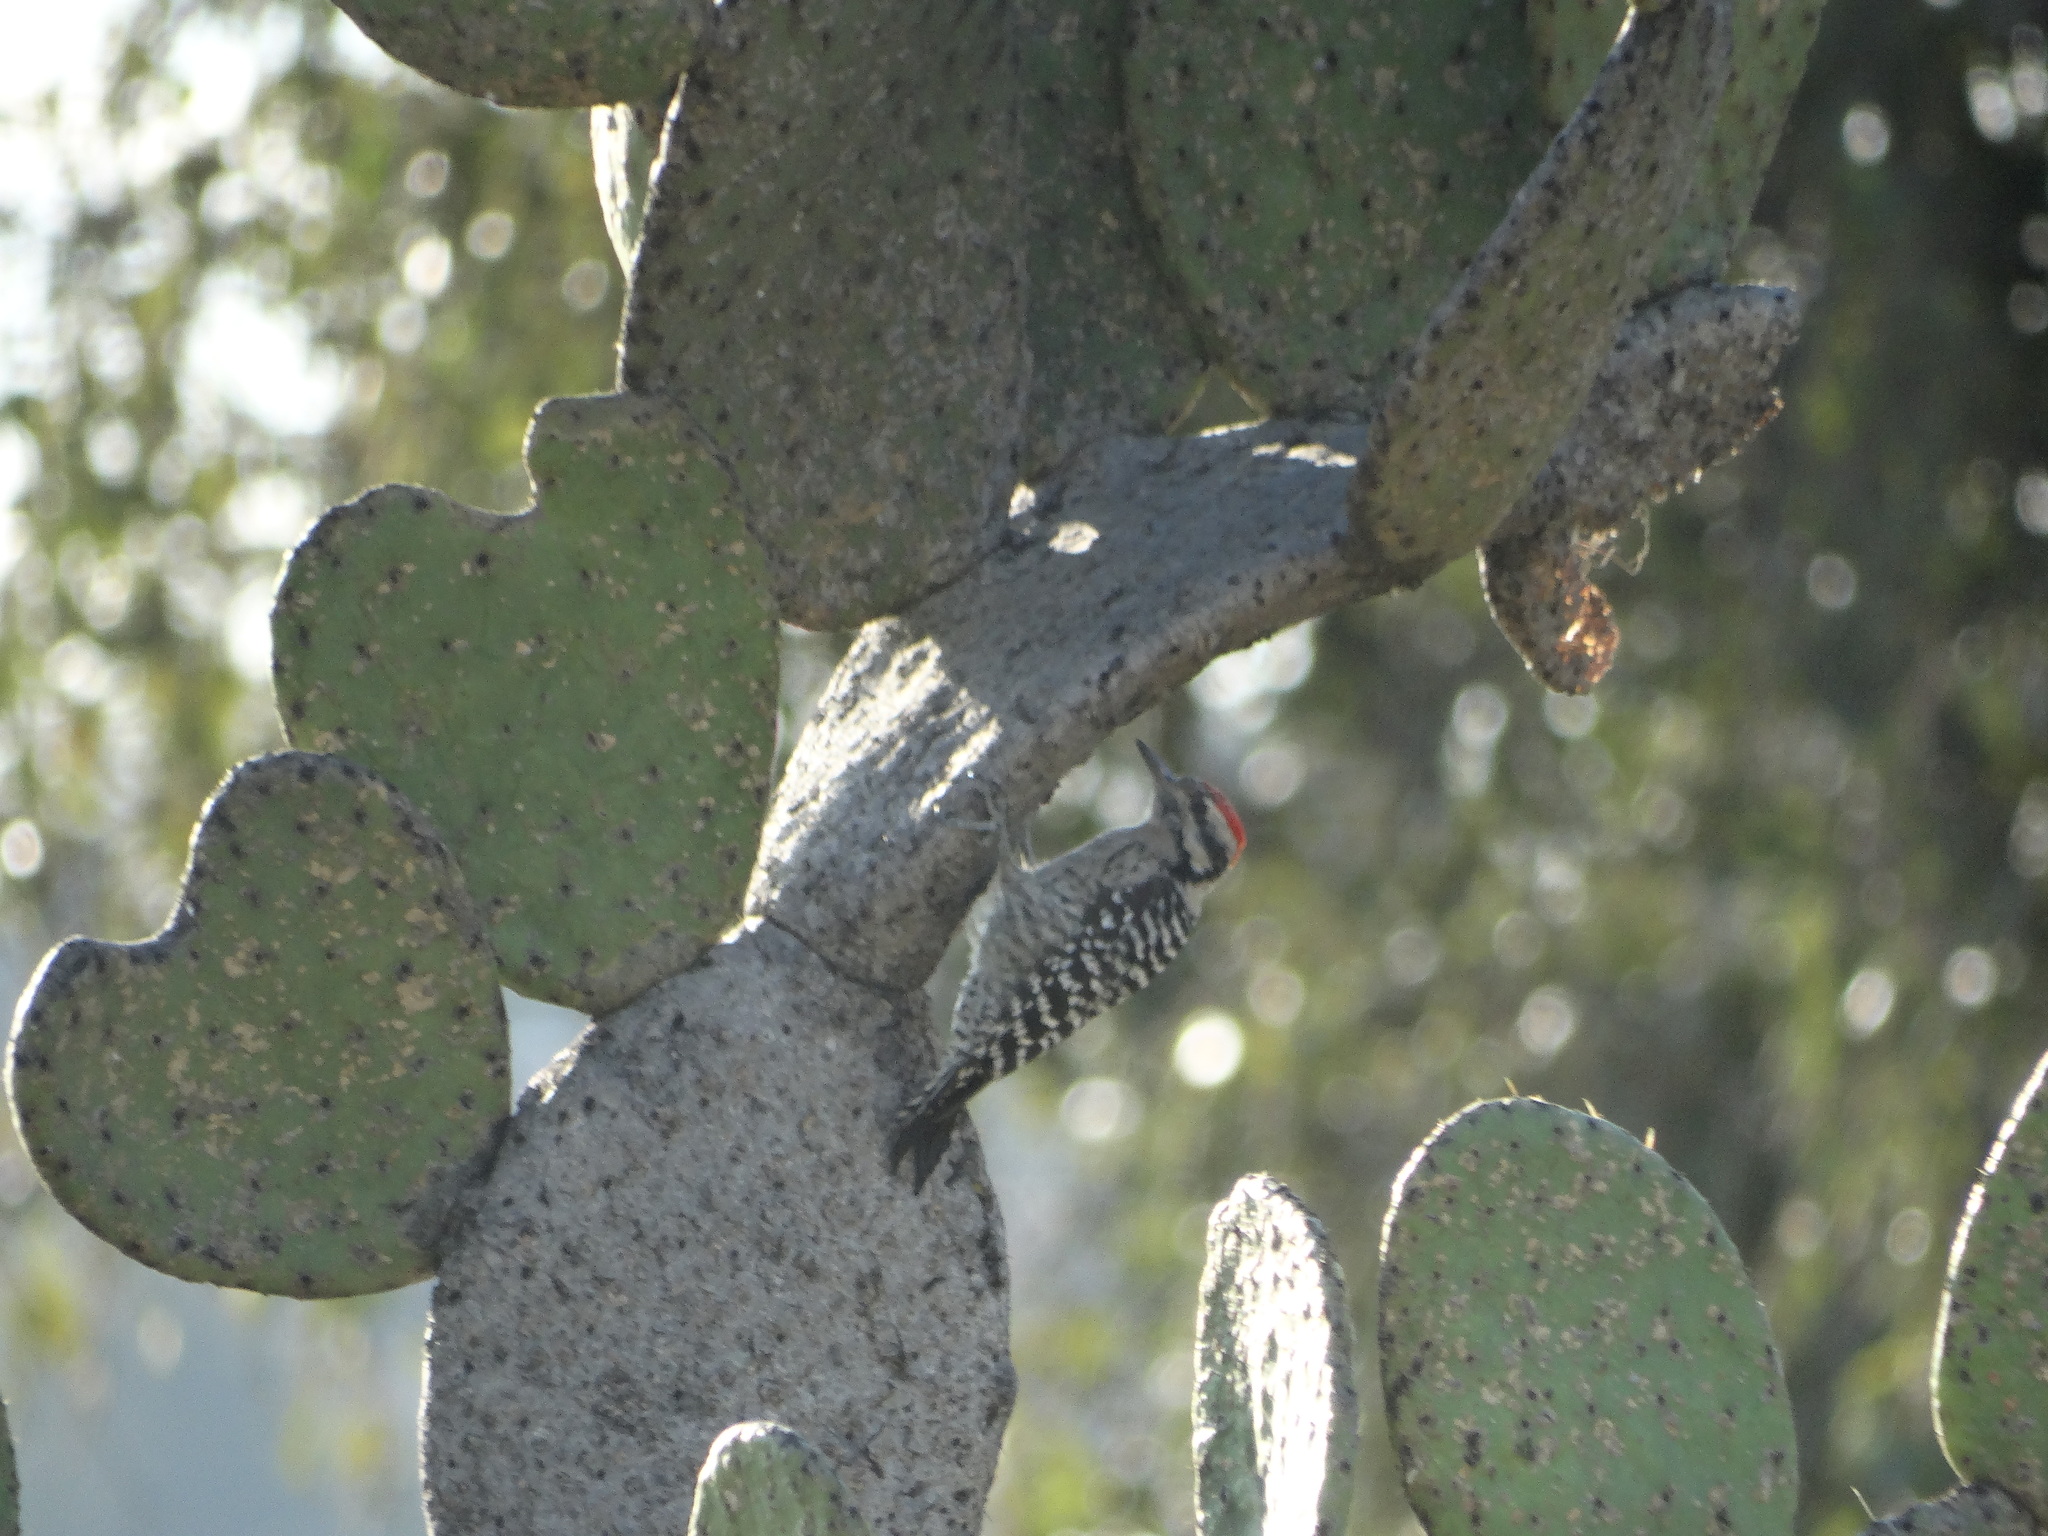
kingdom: Animalia
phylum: Chordata
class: Aves
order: Piciformes
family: Picidae
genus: Dryobates
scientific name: Dryobates scalaris
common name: Ladder-backed woodpecker
